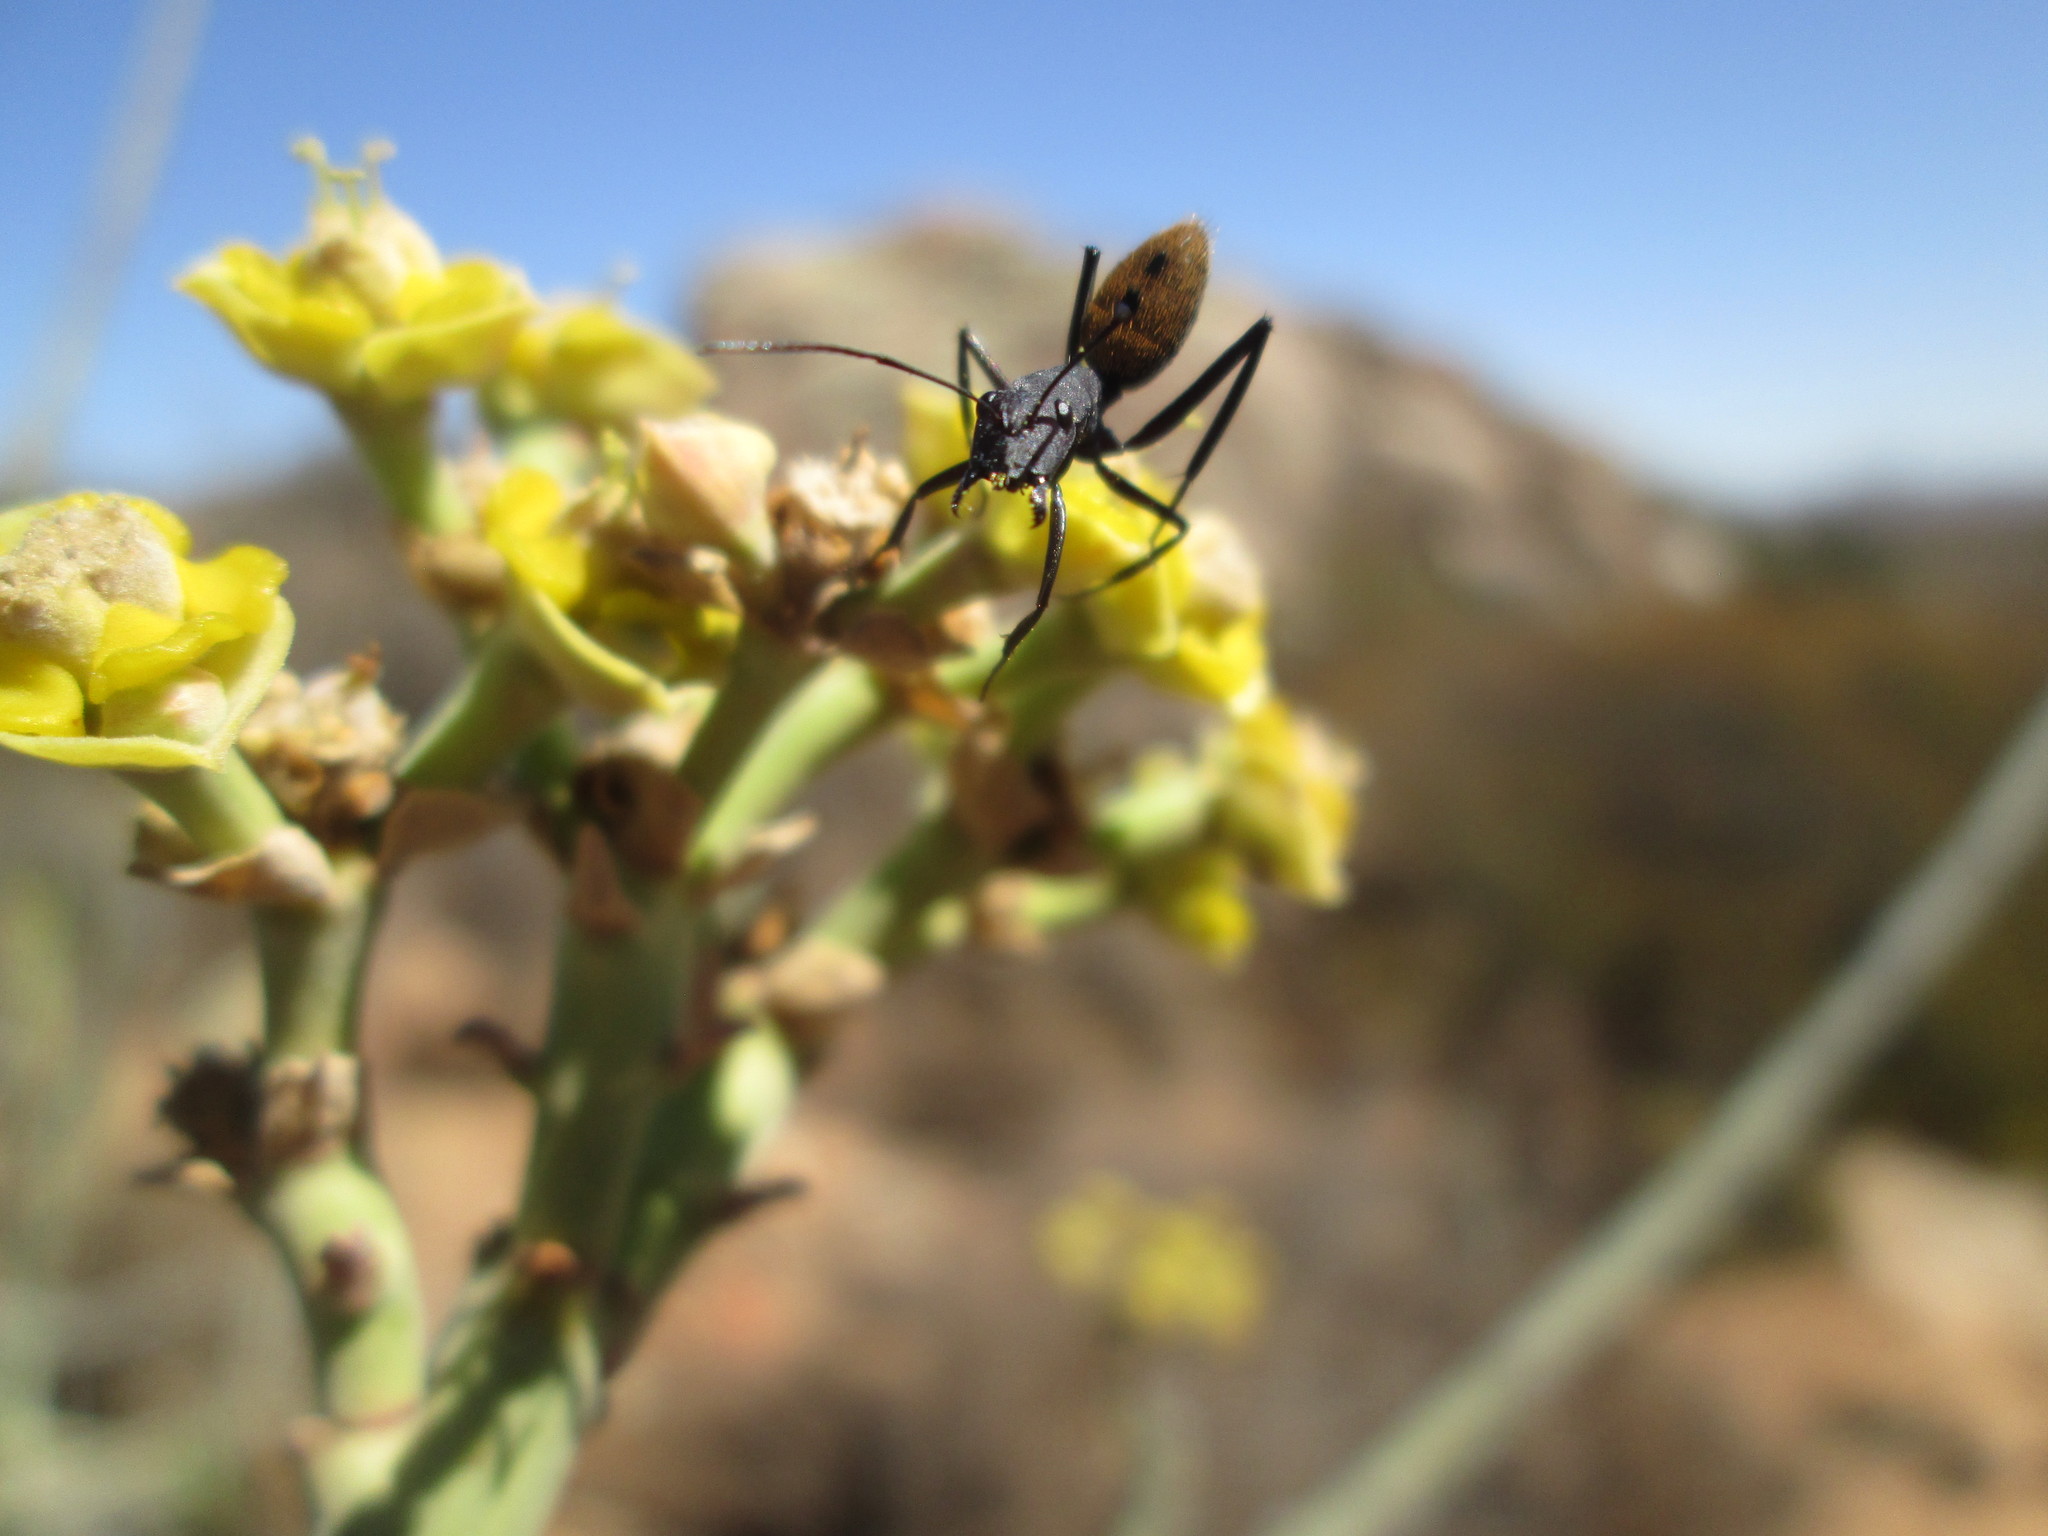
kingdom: Animalia
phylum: Arthropoda
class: Insecta
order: Hymenoptera
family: Formicidae
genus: Camponotus
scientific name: Camponotus fulvopilosus
